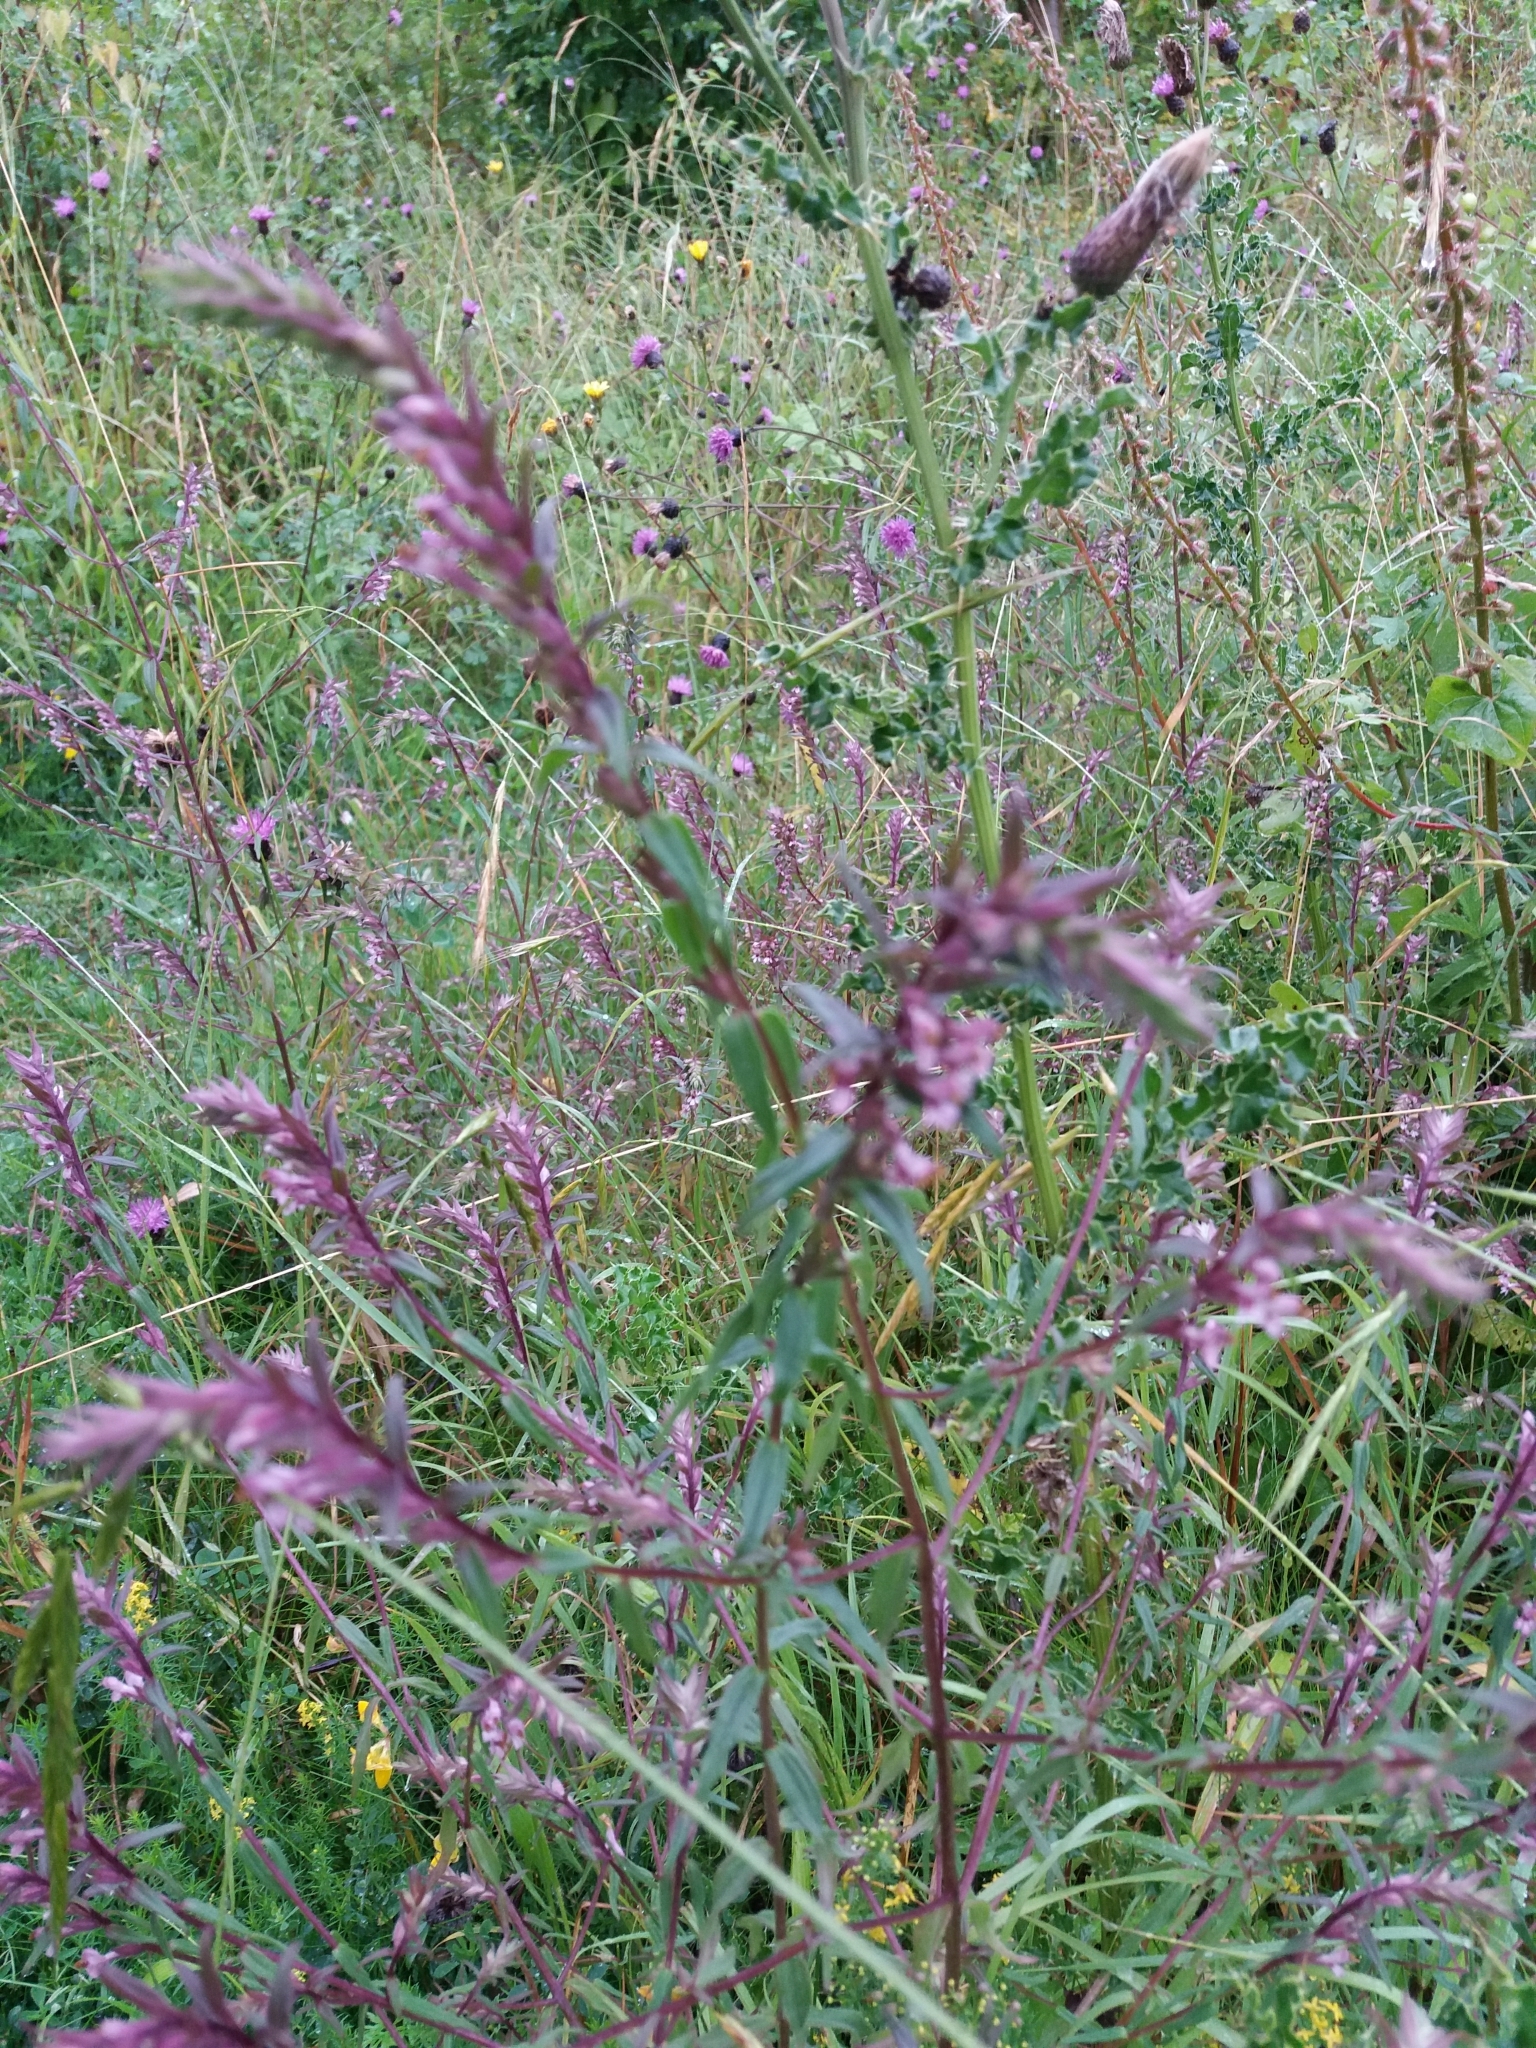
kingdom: Plantae
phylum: Tracheophyta
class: Magnoliopsida
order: Lamiales
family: Orobanchaceae
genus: Odontites
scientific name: Odontites vulgaris
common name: Broomrape
